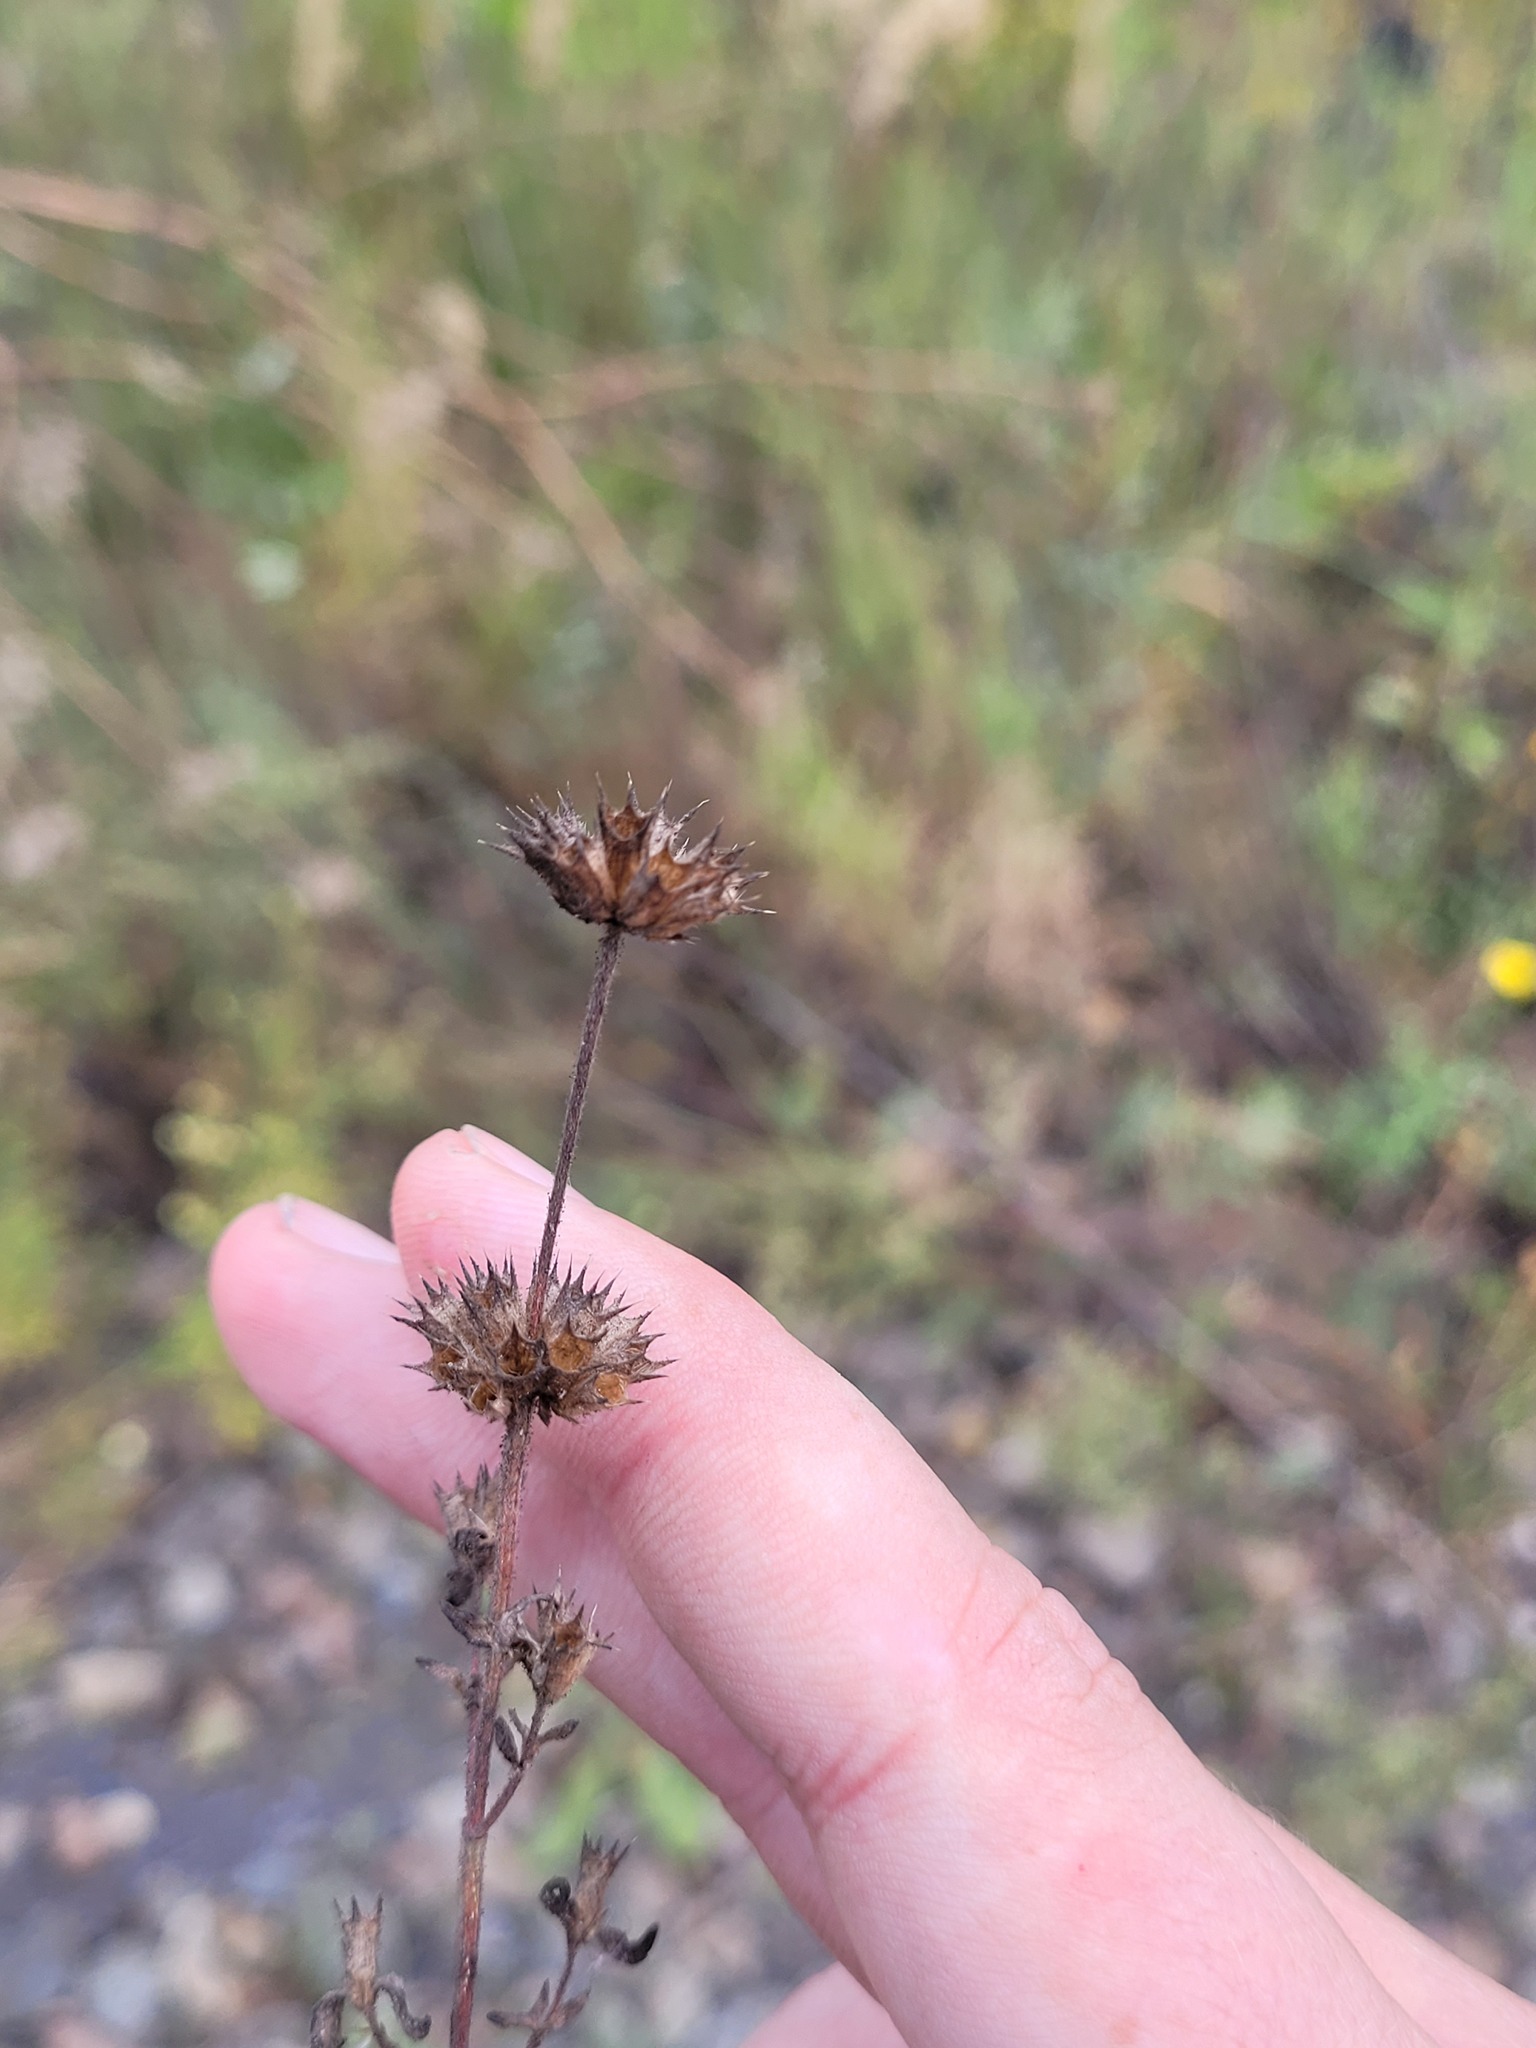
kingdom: Plantae
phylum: Tracheophyta
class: Magnoliopsida
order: Lamiales
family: Lamiaceae
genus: Galeopsis
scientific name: Galeopsis ladanum
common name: Broad-leaved hemp-nettle
